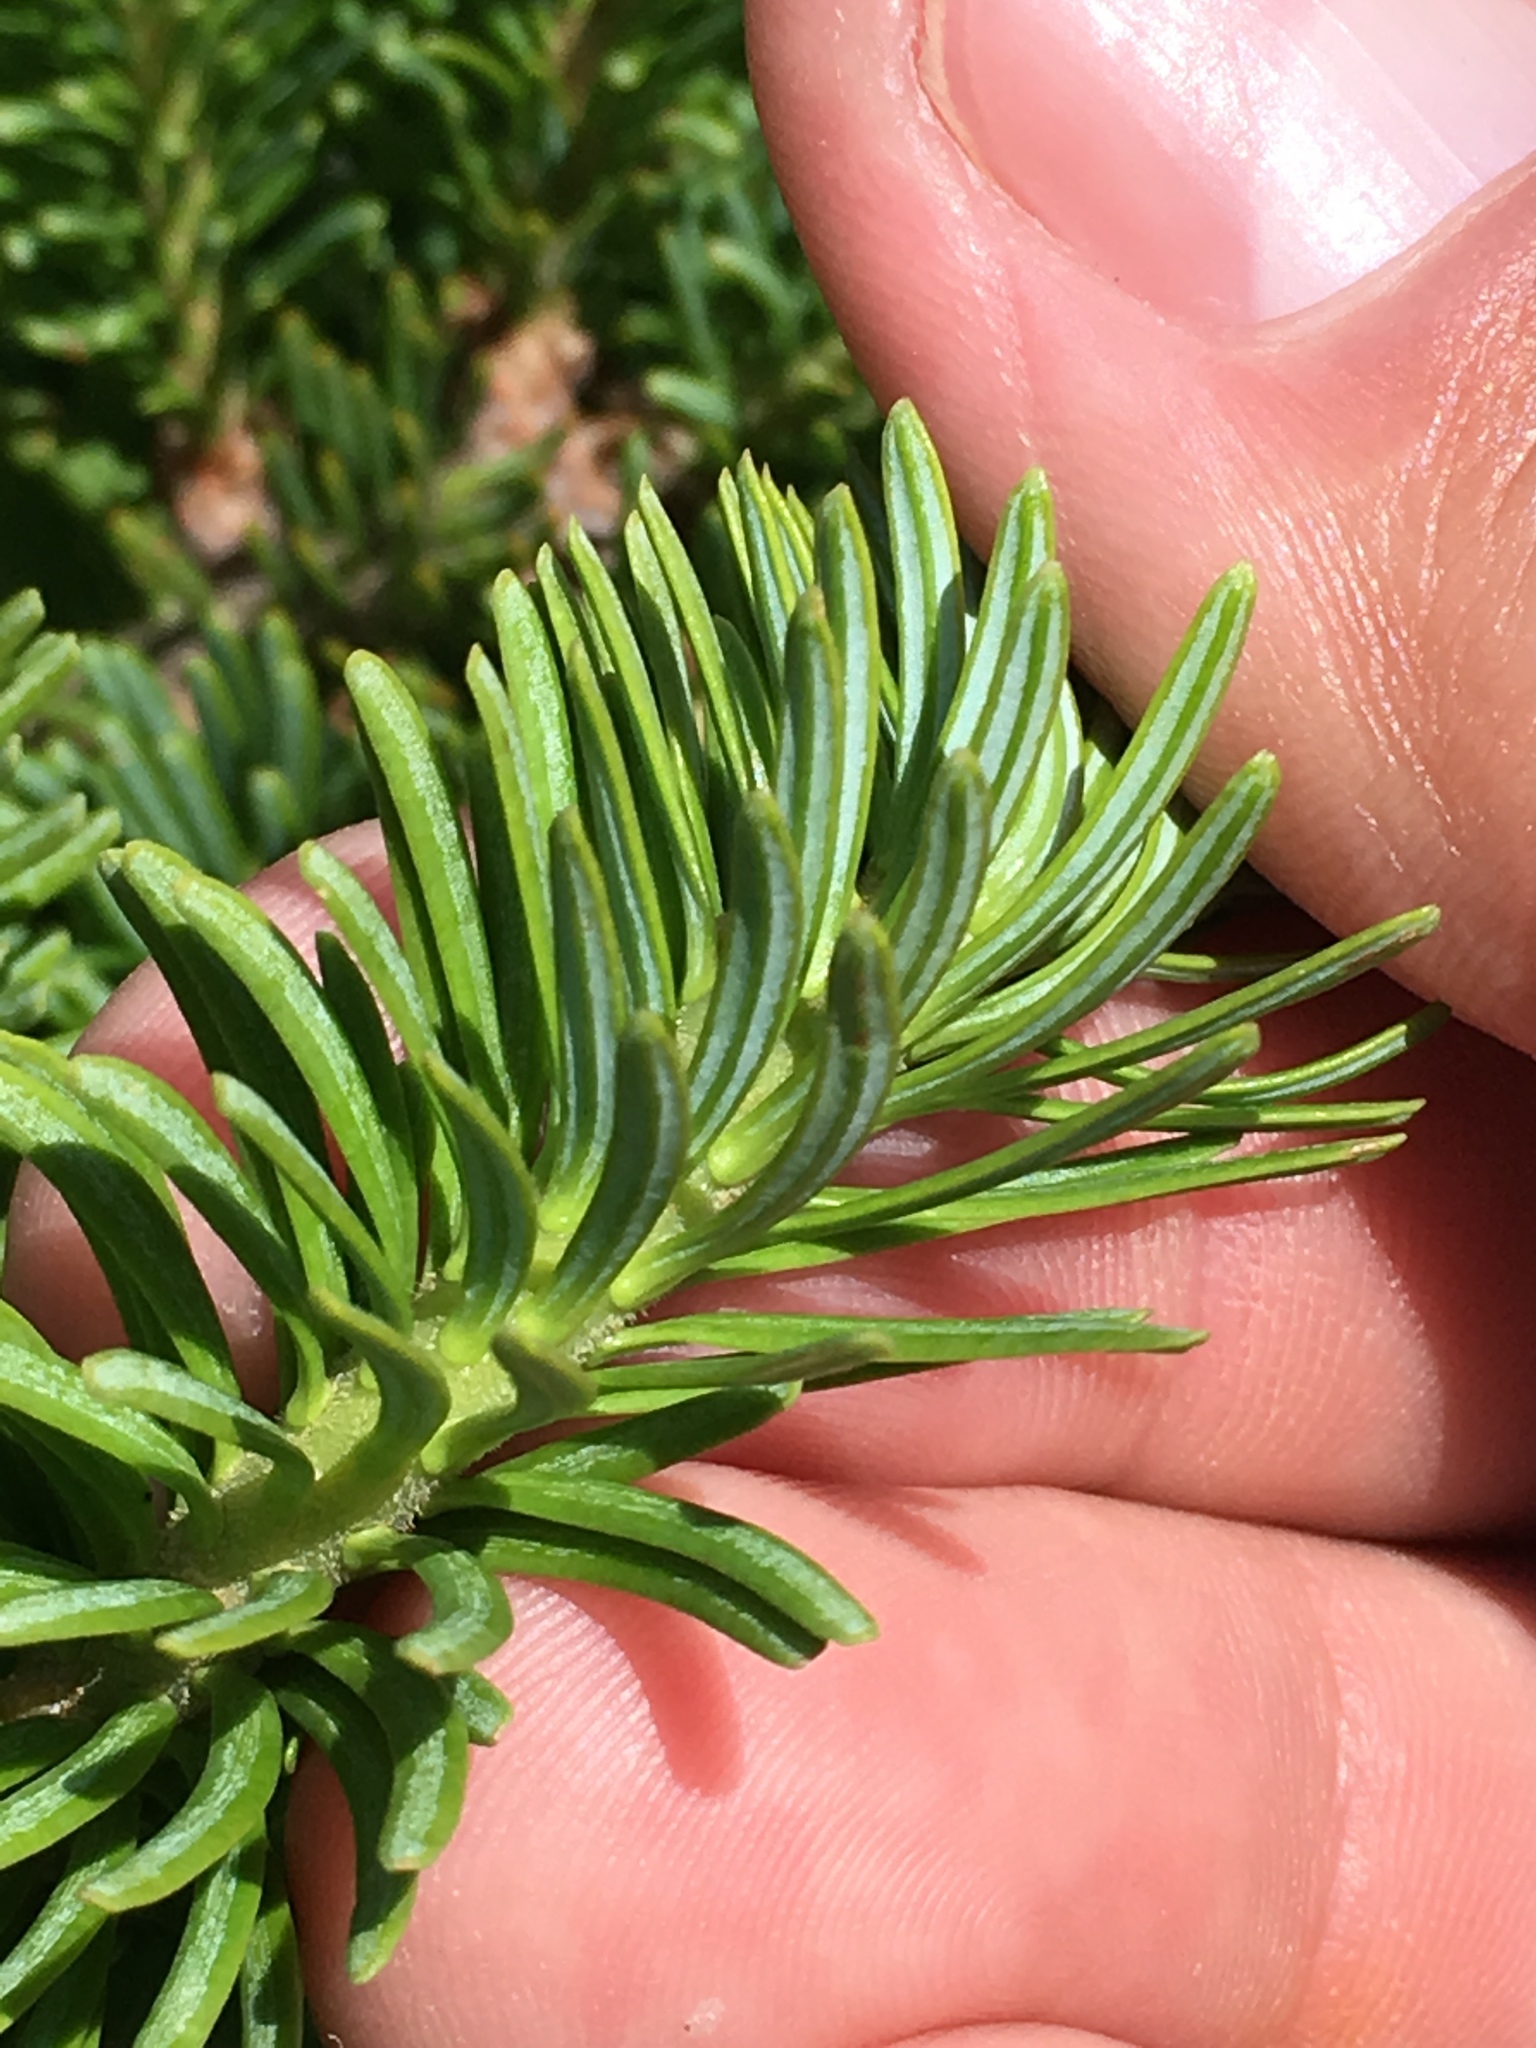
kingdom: Plantae
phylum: Tracheophyta
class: Pinopsida
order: Pinales
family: Pinaceae
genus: Abies
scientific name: Abies balsamea
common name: Balsam fir
